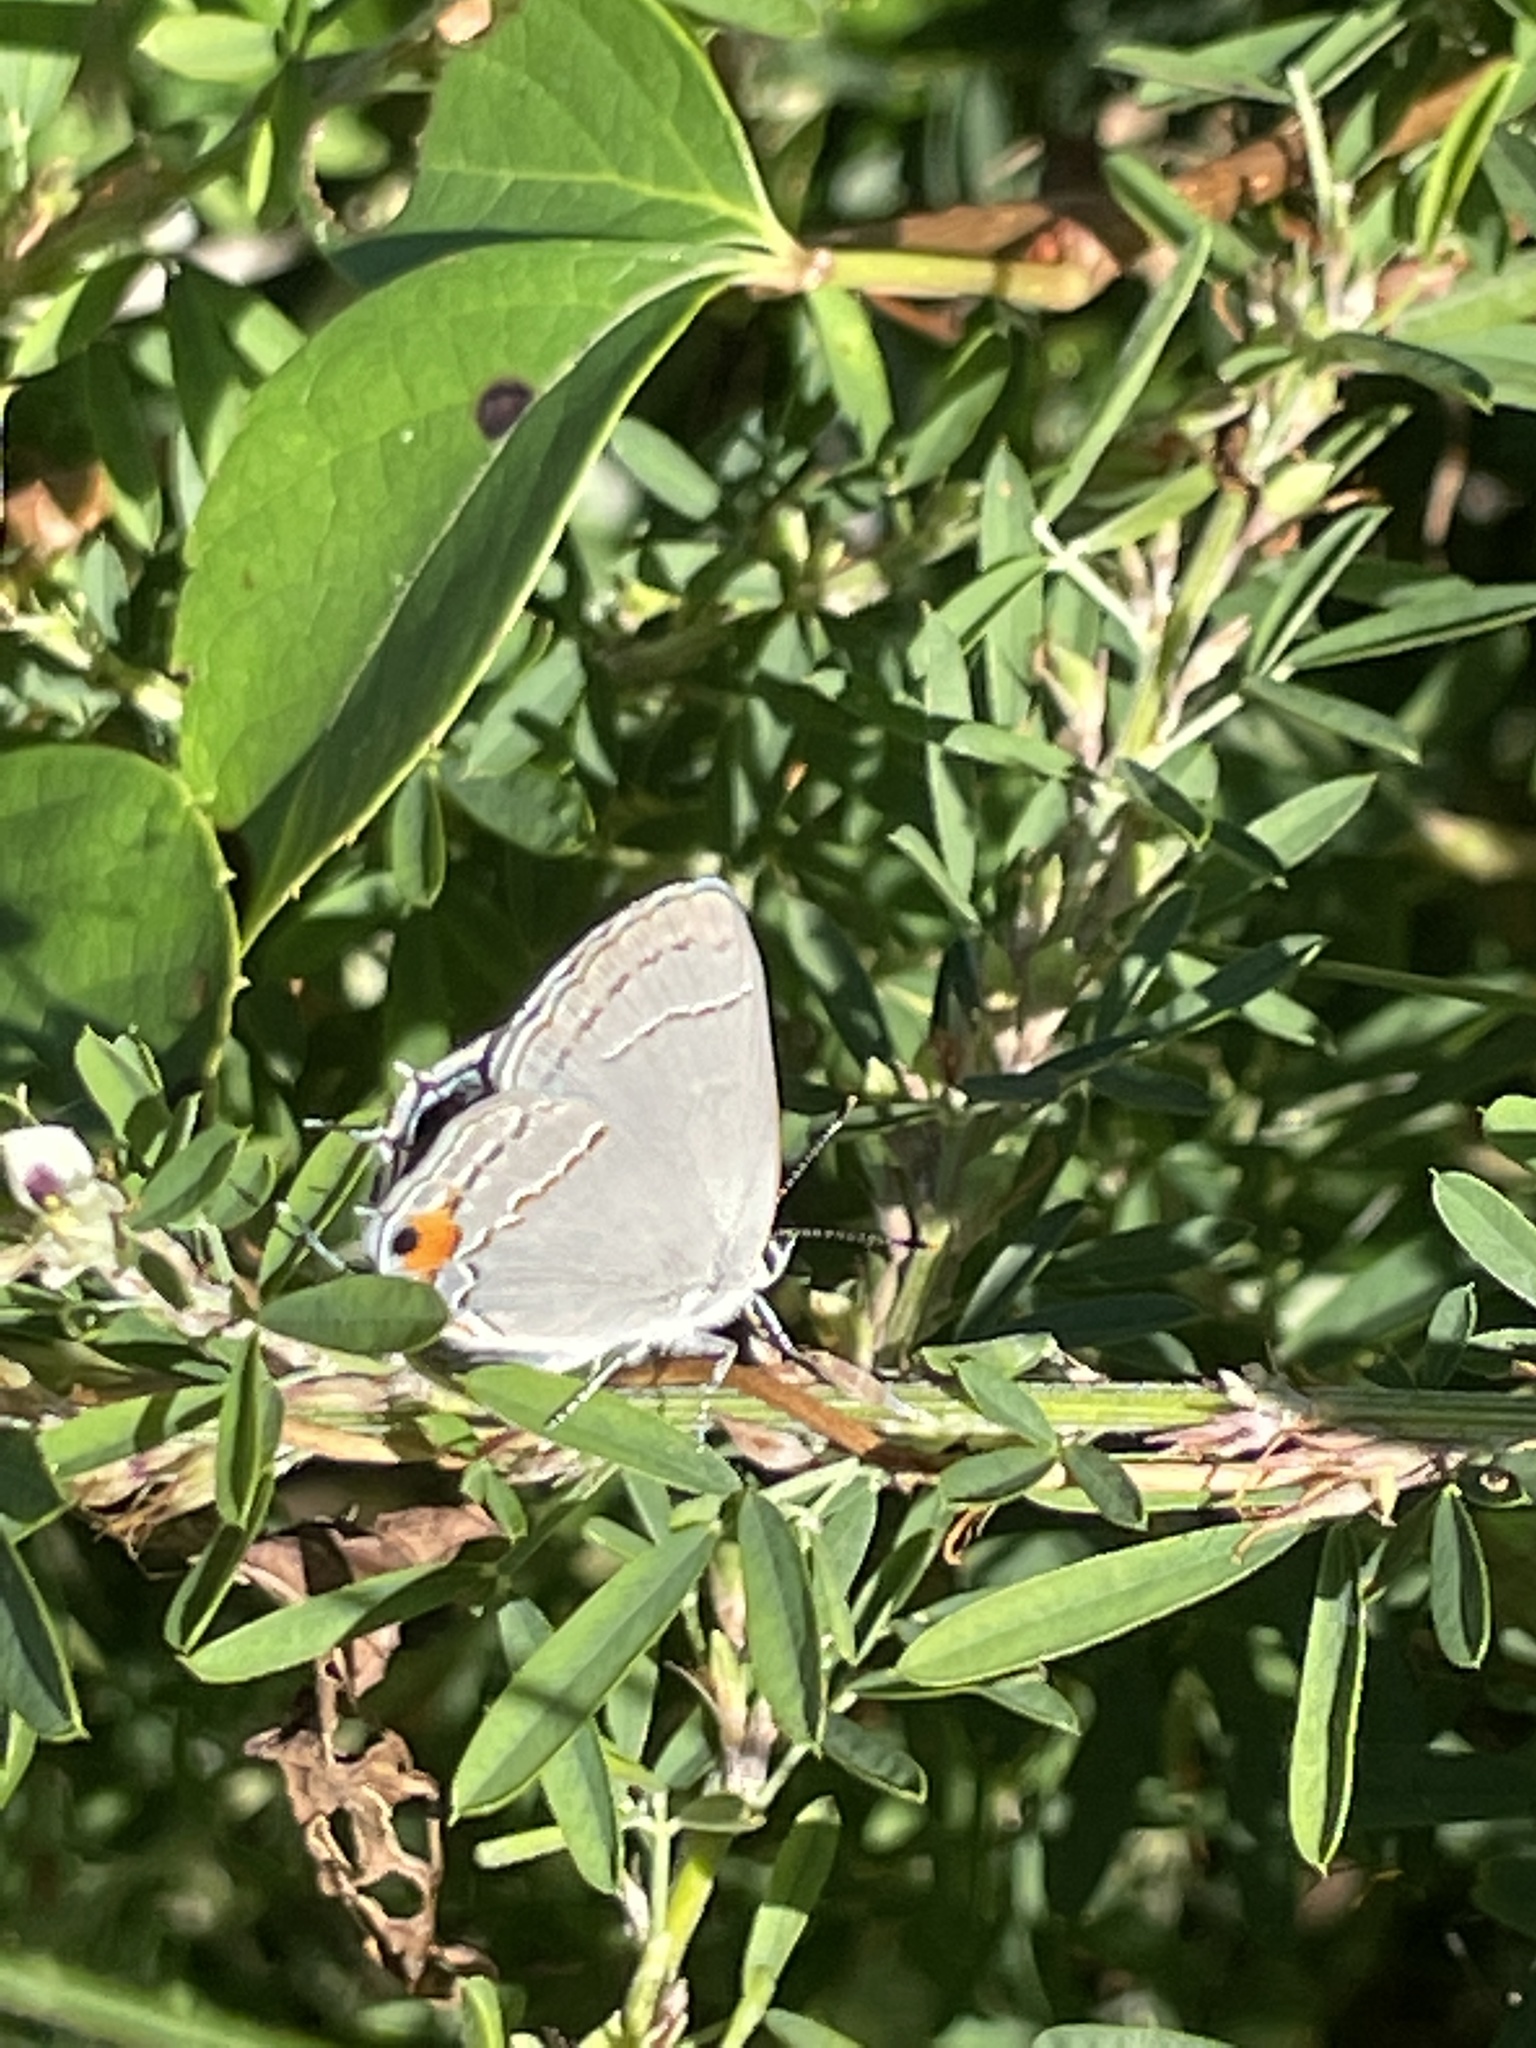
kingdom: Animalia
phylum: Arthropoda
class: Insecta
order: Lepidoptera
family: Lycaenidae
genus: Strymon
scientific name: Strymon melinus
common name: Gray hairstreak
